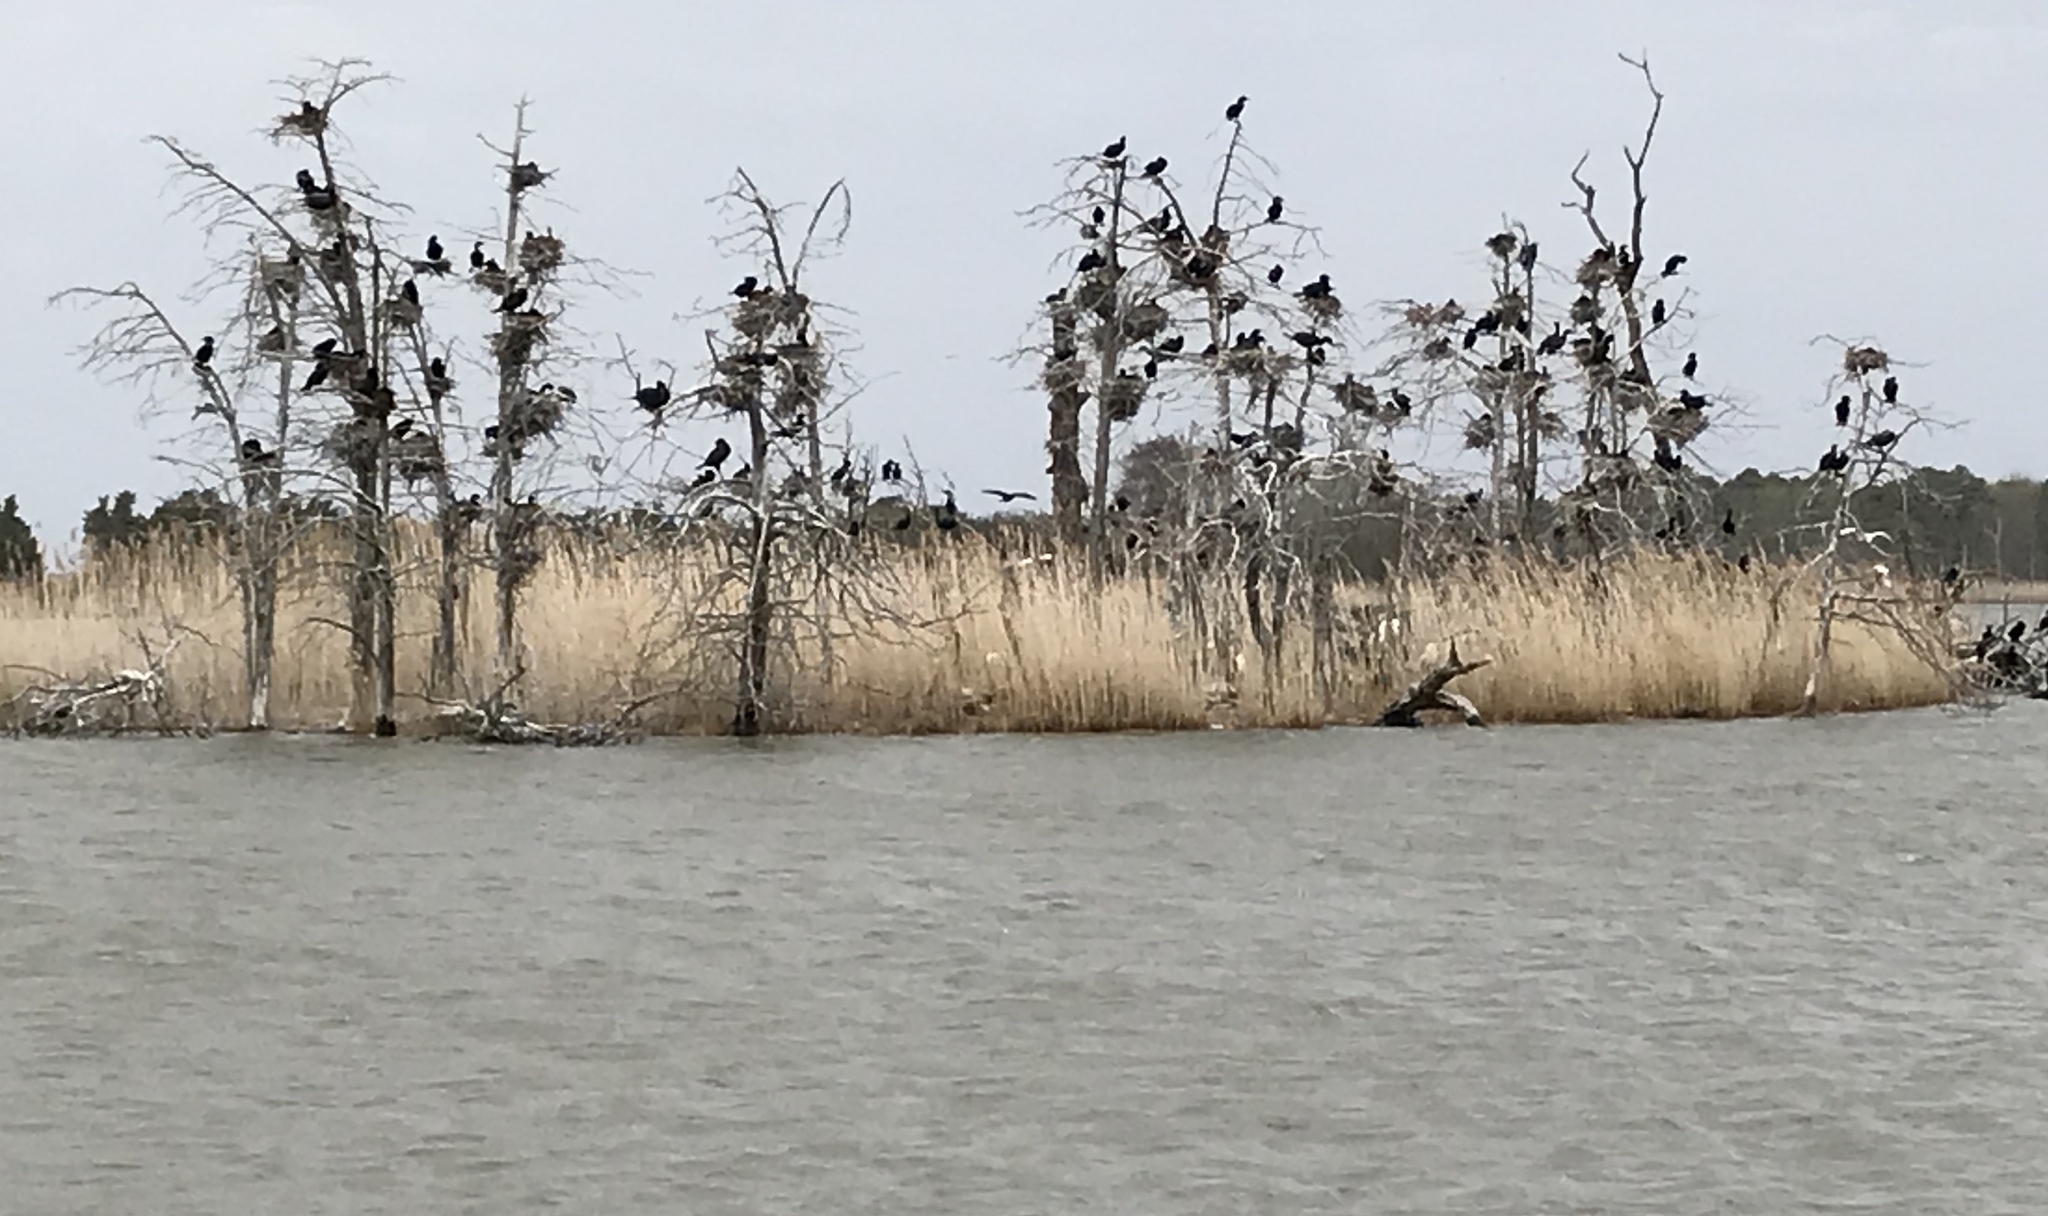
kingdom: Animalia
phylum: Chordata
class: Aves
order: Suliformes
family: Phalacrocoracidae
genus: Phalacrocorax
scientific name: Phalacrocorax auritus
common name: Double-crested cormorant
